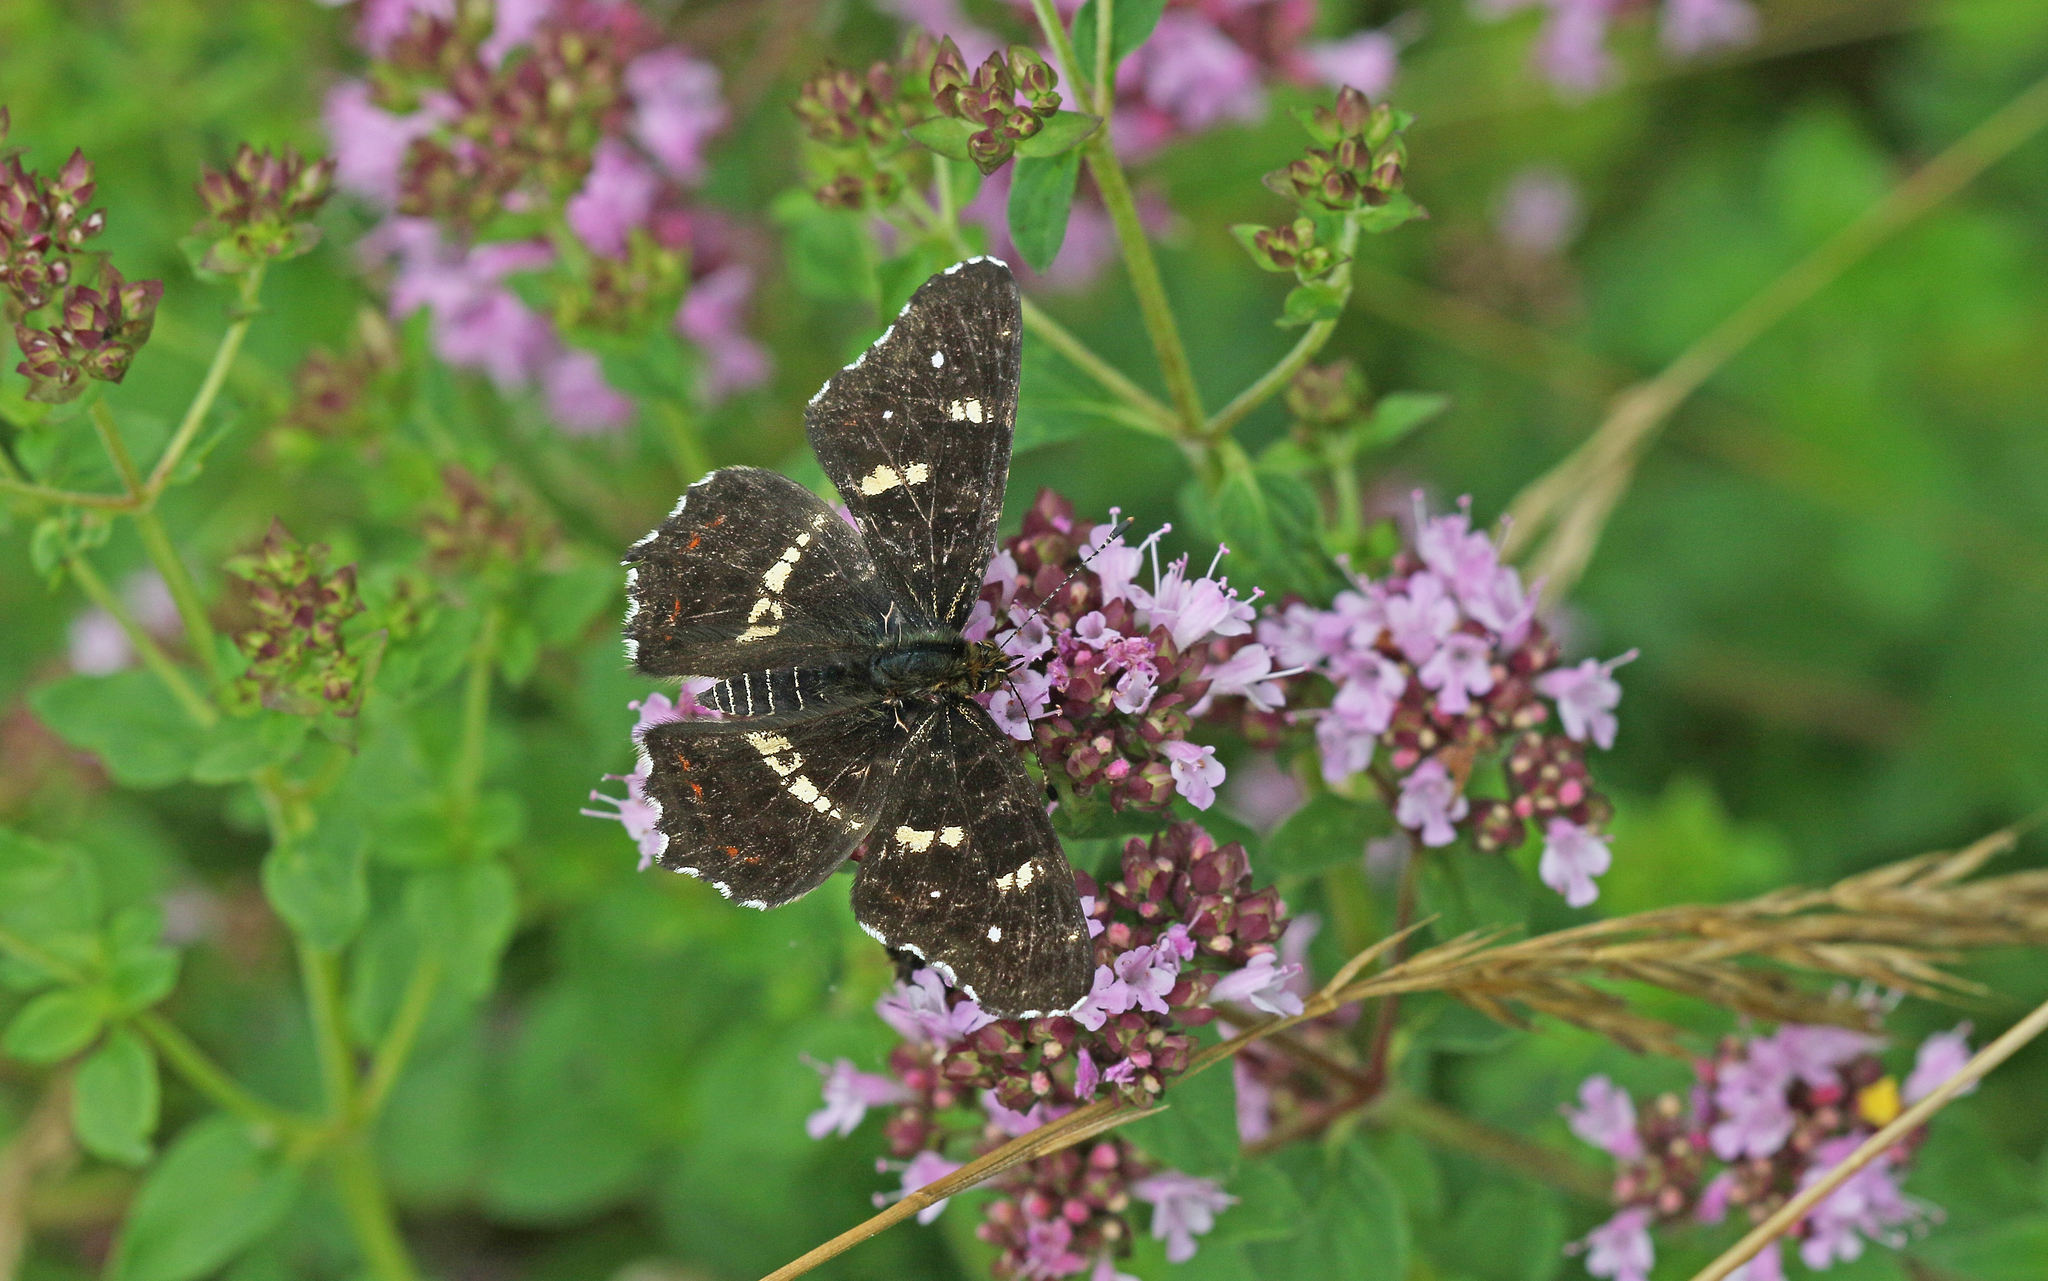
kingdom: Animalia
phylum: Arthropoda
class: Insecta
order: Lepidoptera
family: Nymphalidae
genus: Araschnia
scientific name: Araschnia levana
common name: Map butterfly
